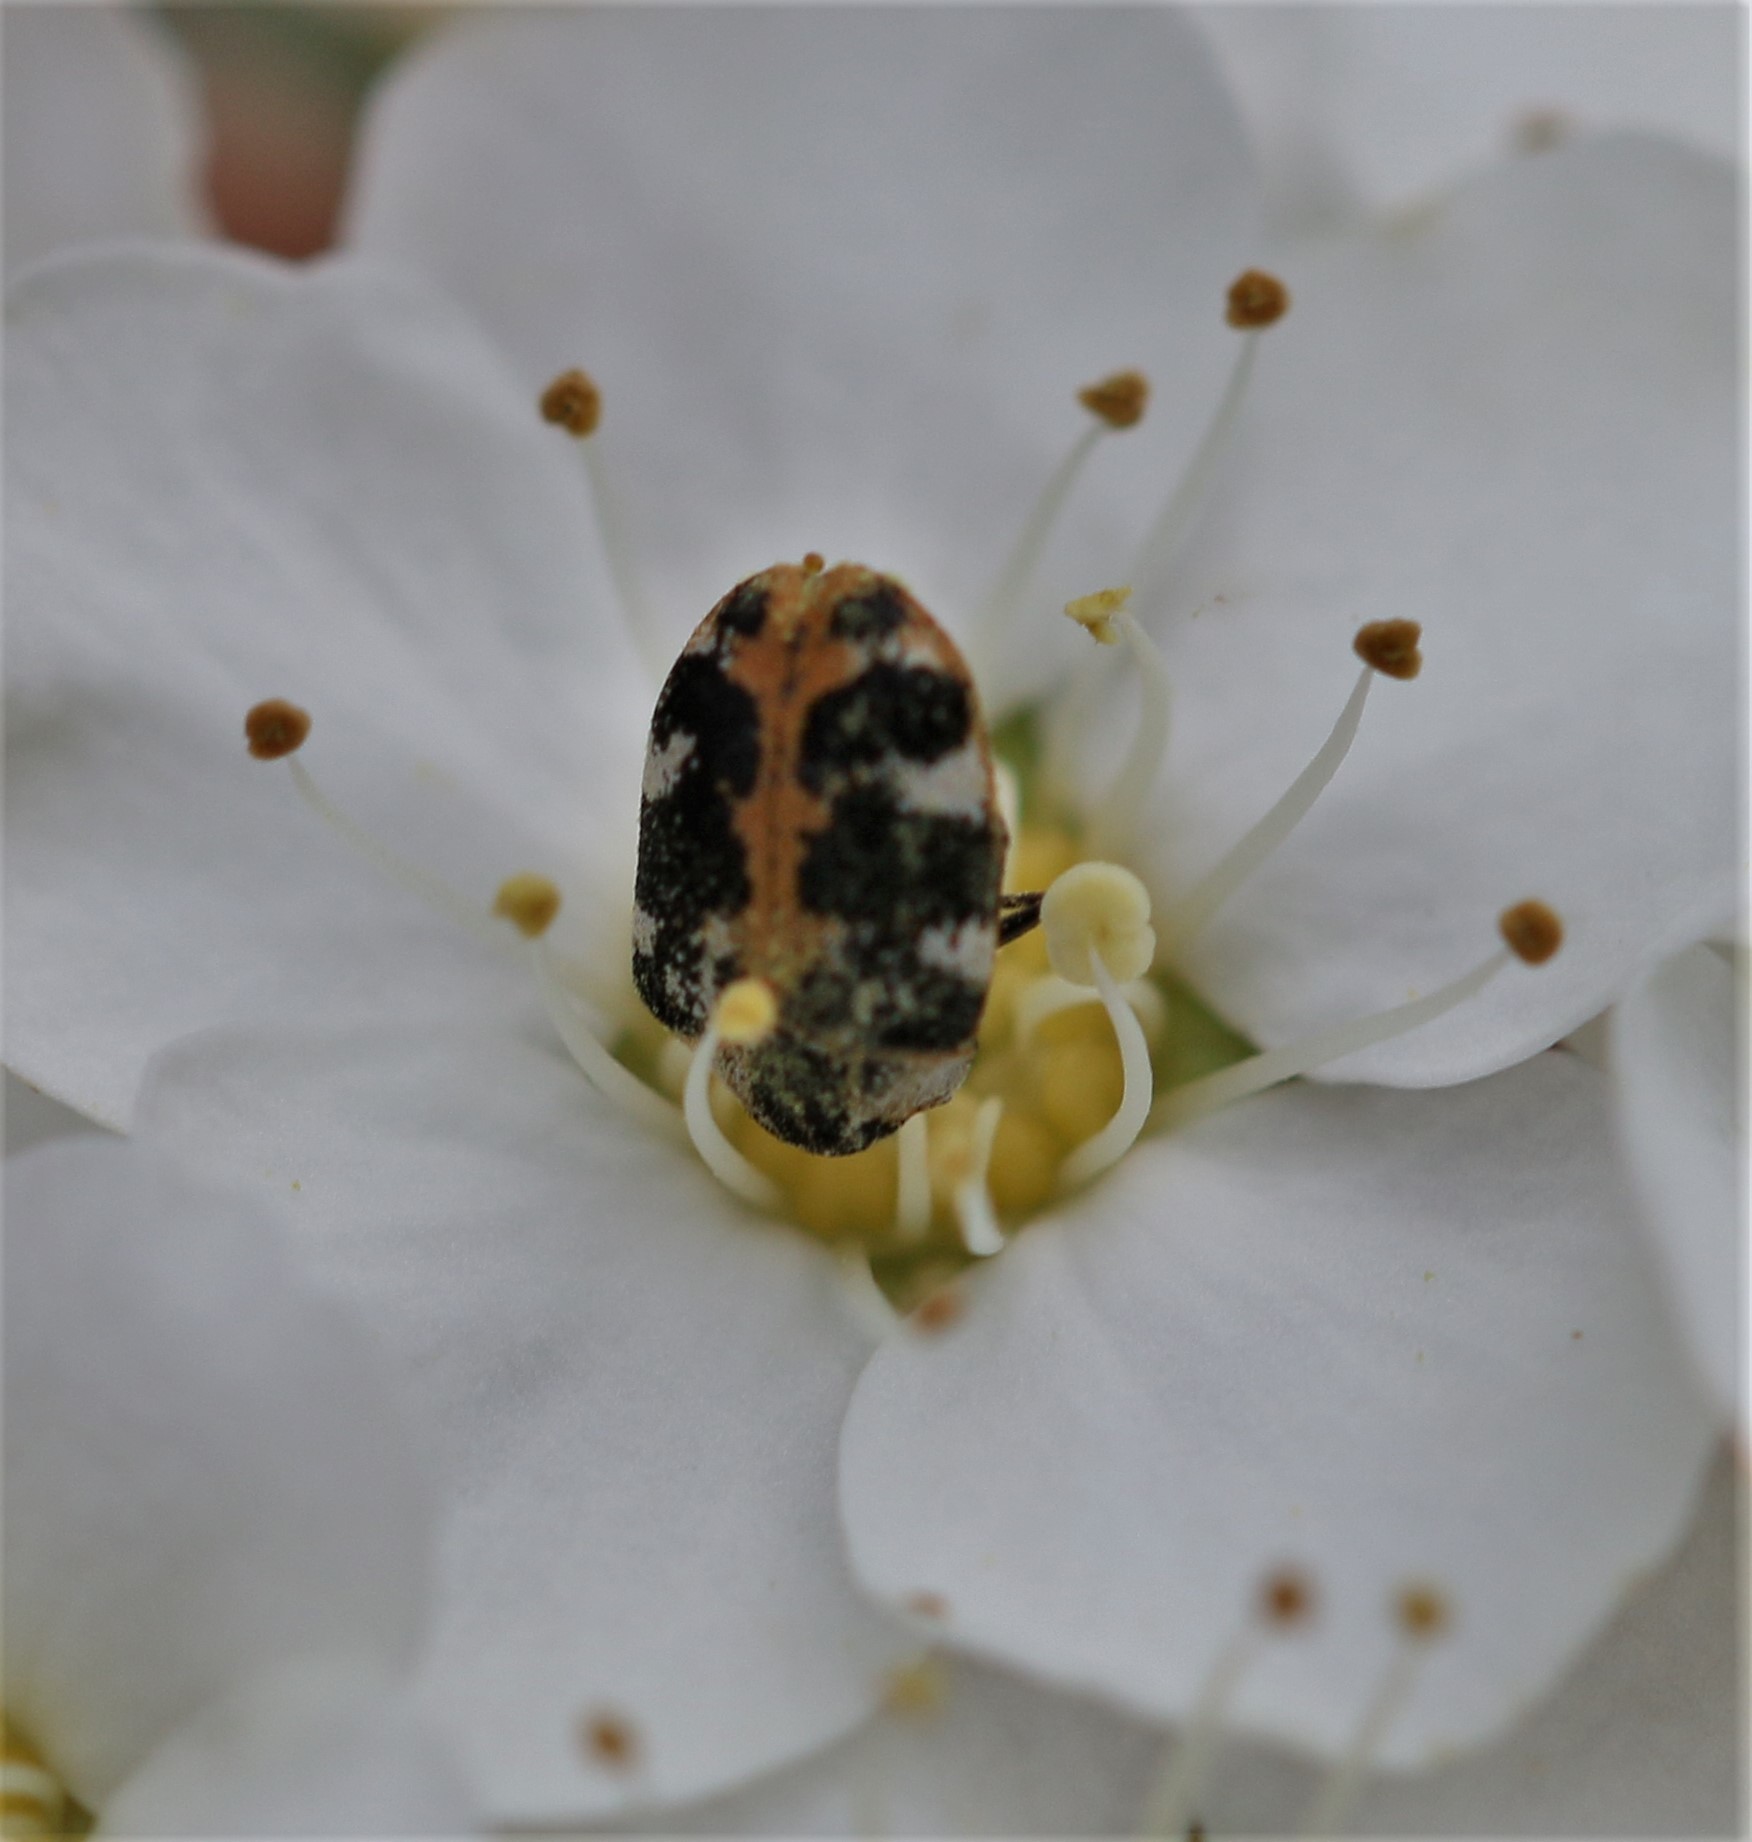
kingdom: Animalia
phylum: Arthropoda
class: Insecta
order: Coleoptera
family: Dermestidae
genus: Anthrenus
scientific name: Anthrenus scrophulariae
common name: Buffalo carpet beetle
